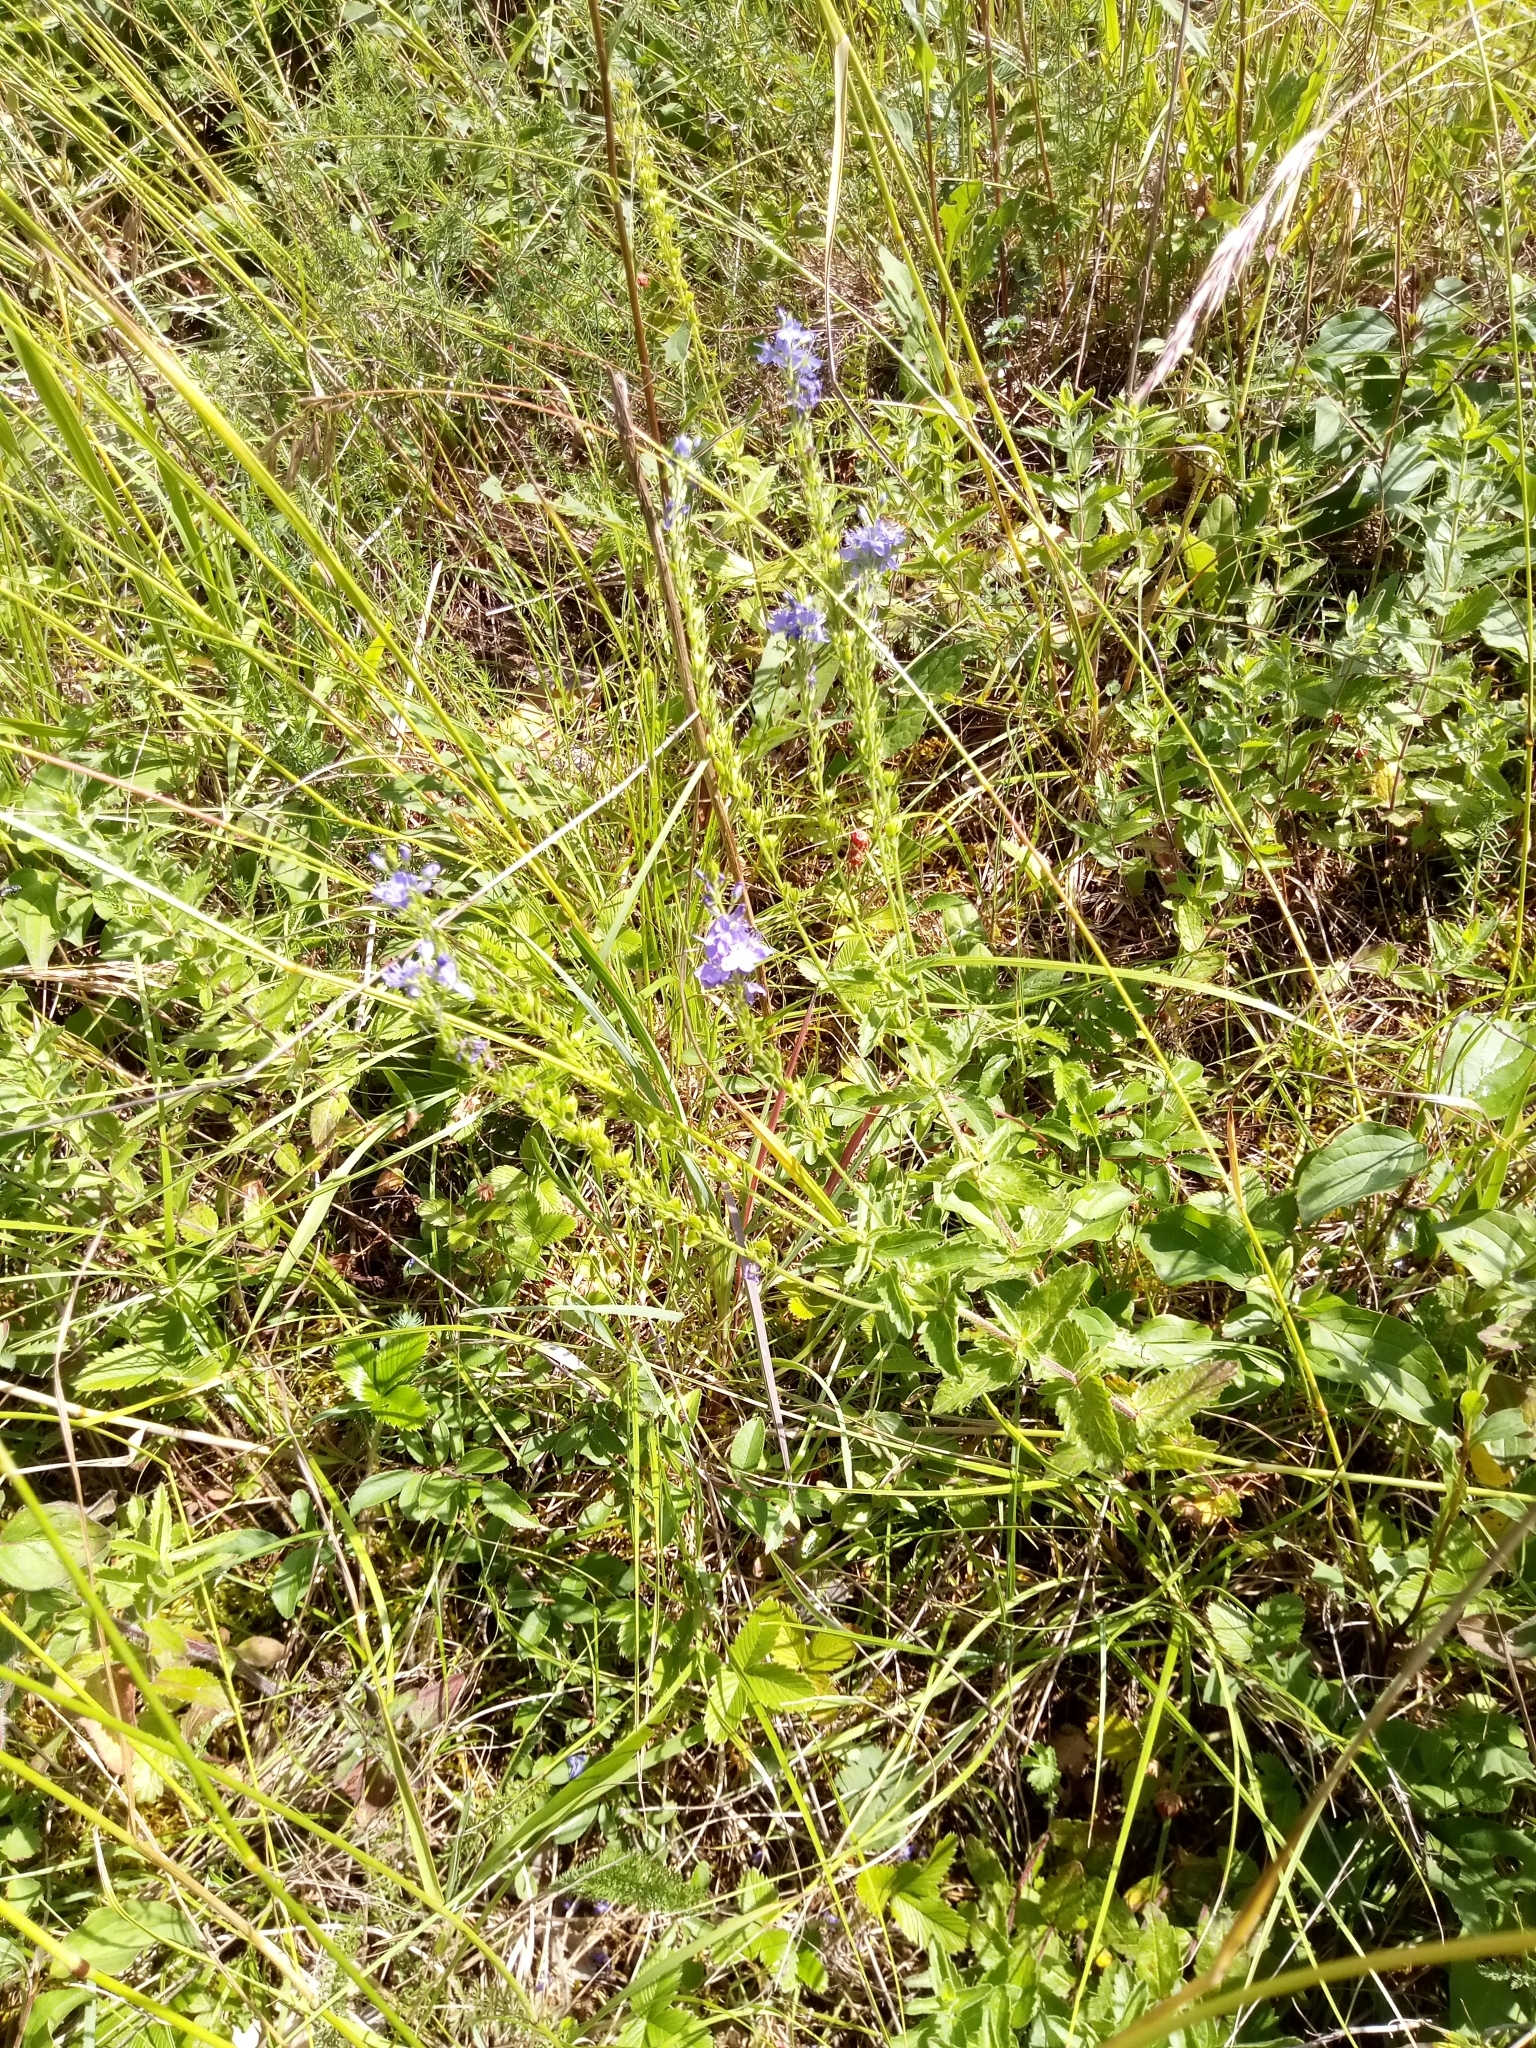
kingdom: Plantae
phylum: Tracheophyta
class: Magnoliopsida
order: Lamiales
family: Plantaginaceae
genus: Veronica
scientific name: Veronica teucrium
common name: Large speedwell
